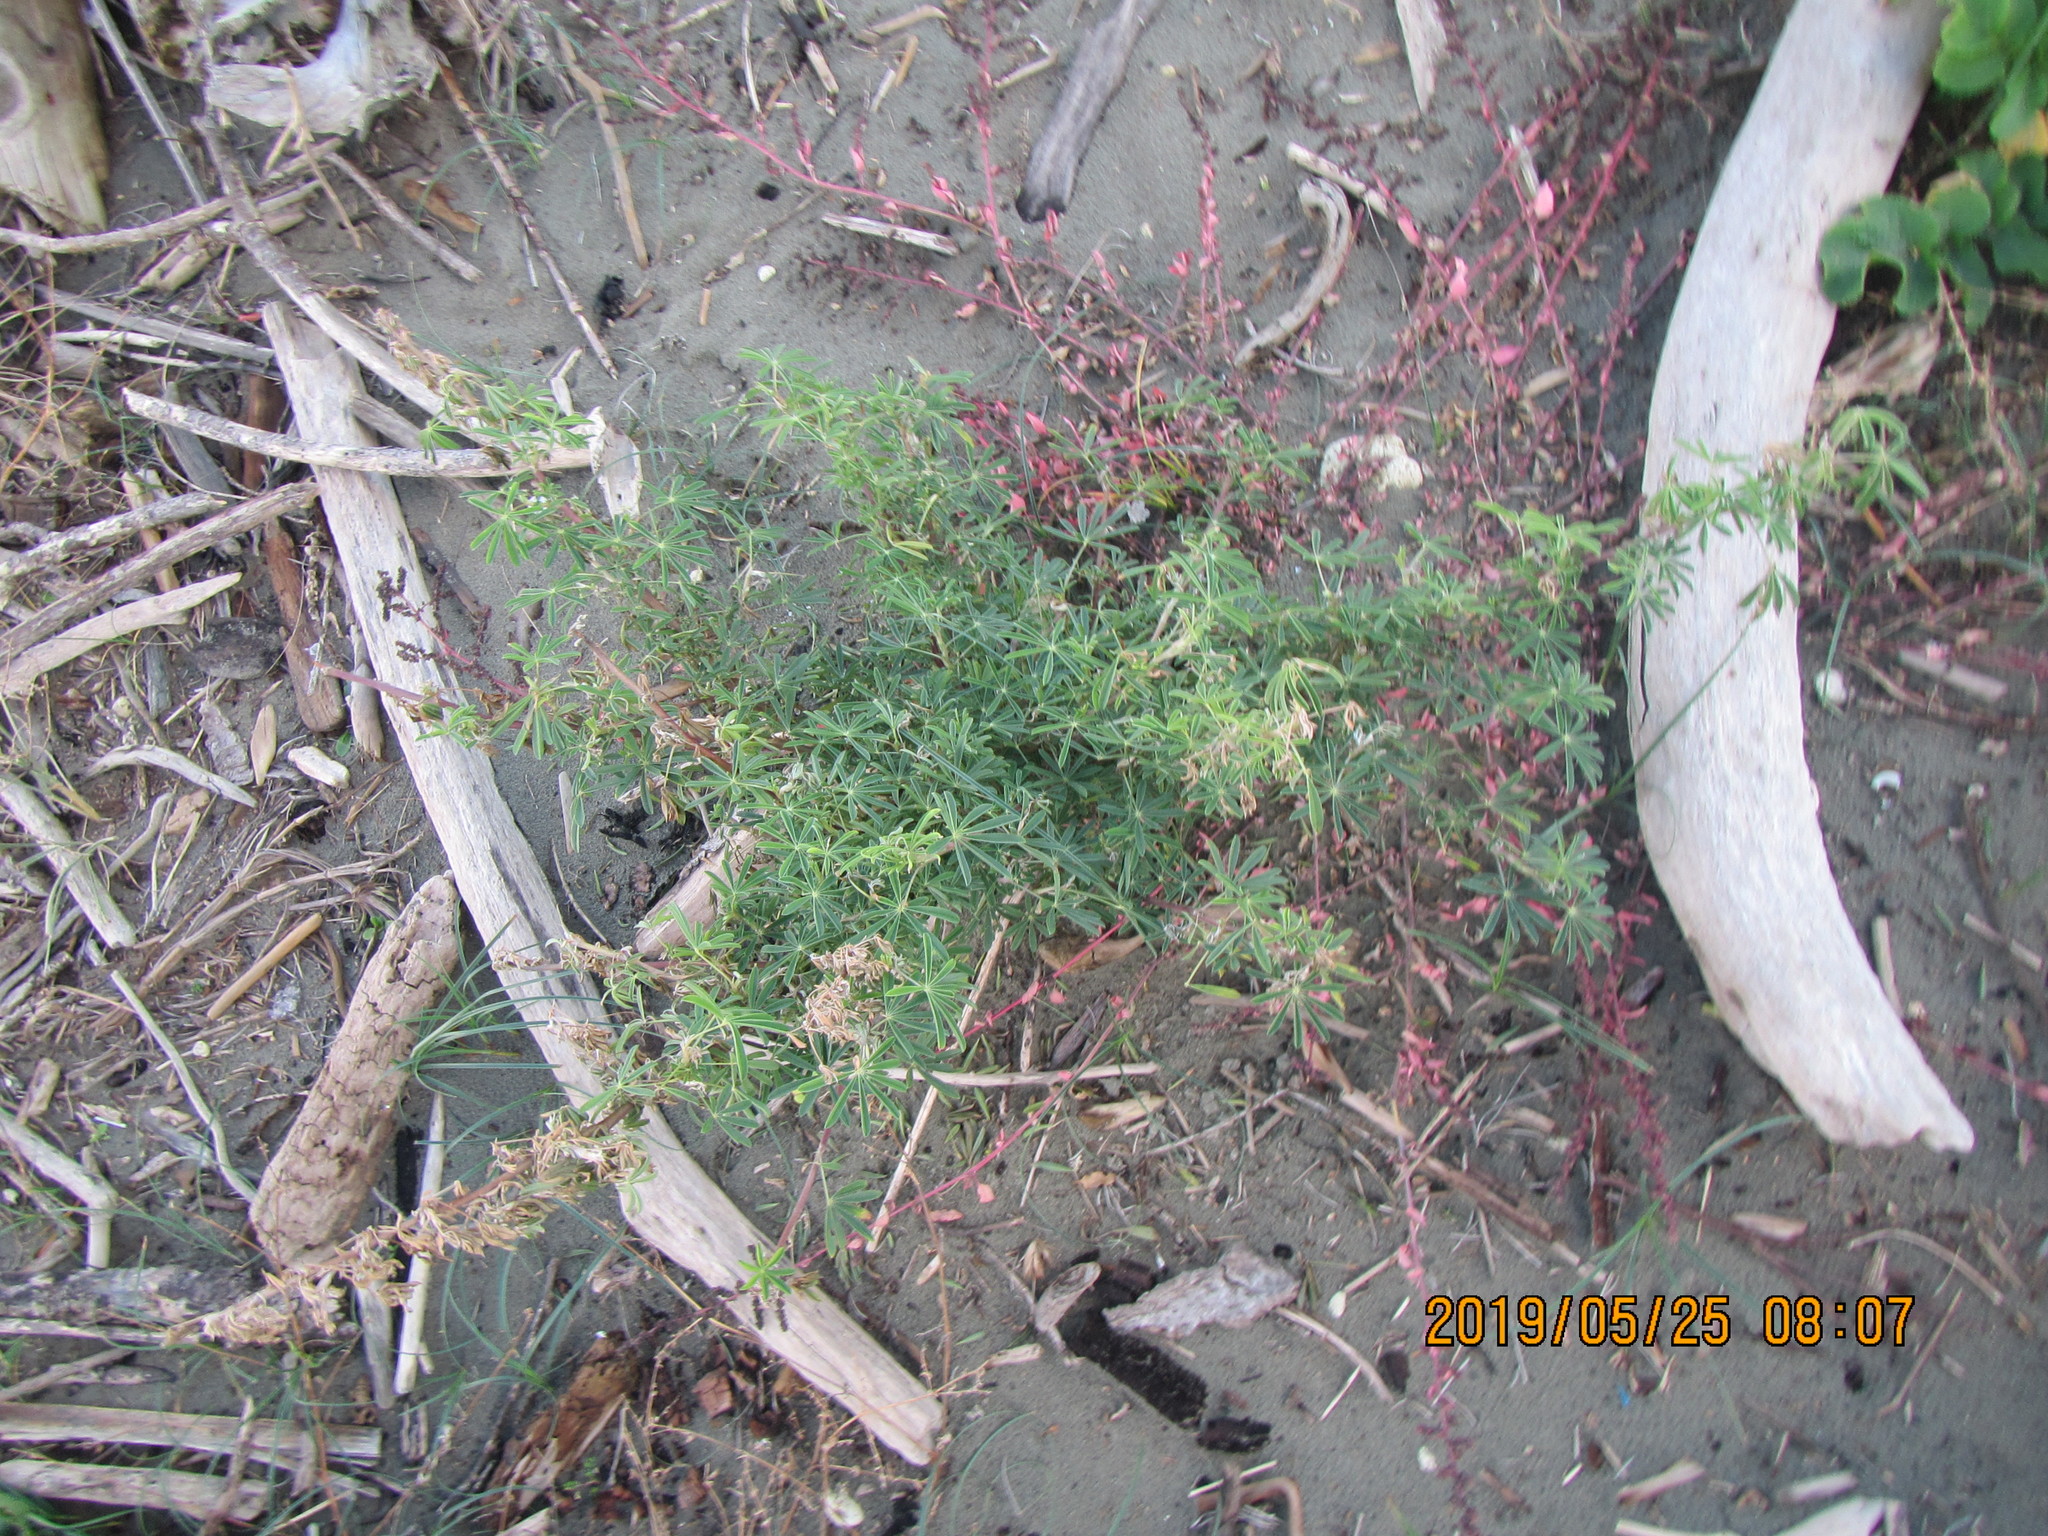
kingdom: Plantae
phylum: Tracheophyta
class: Magnoliopsida
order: Fabales
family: Fabaceae
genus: Lupinus
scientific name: Lupinus arboreus
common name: Yellow bush lupine
